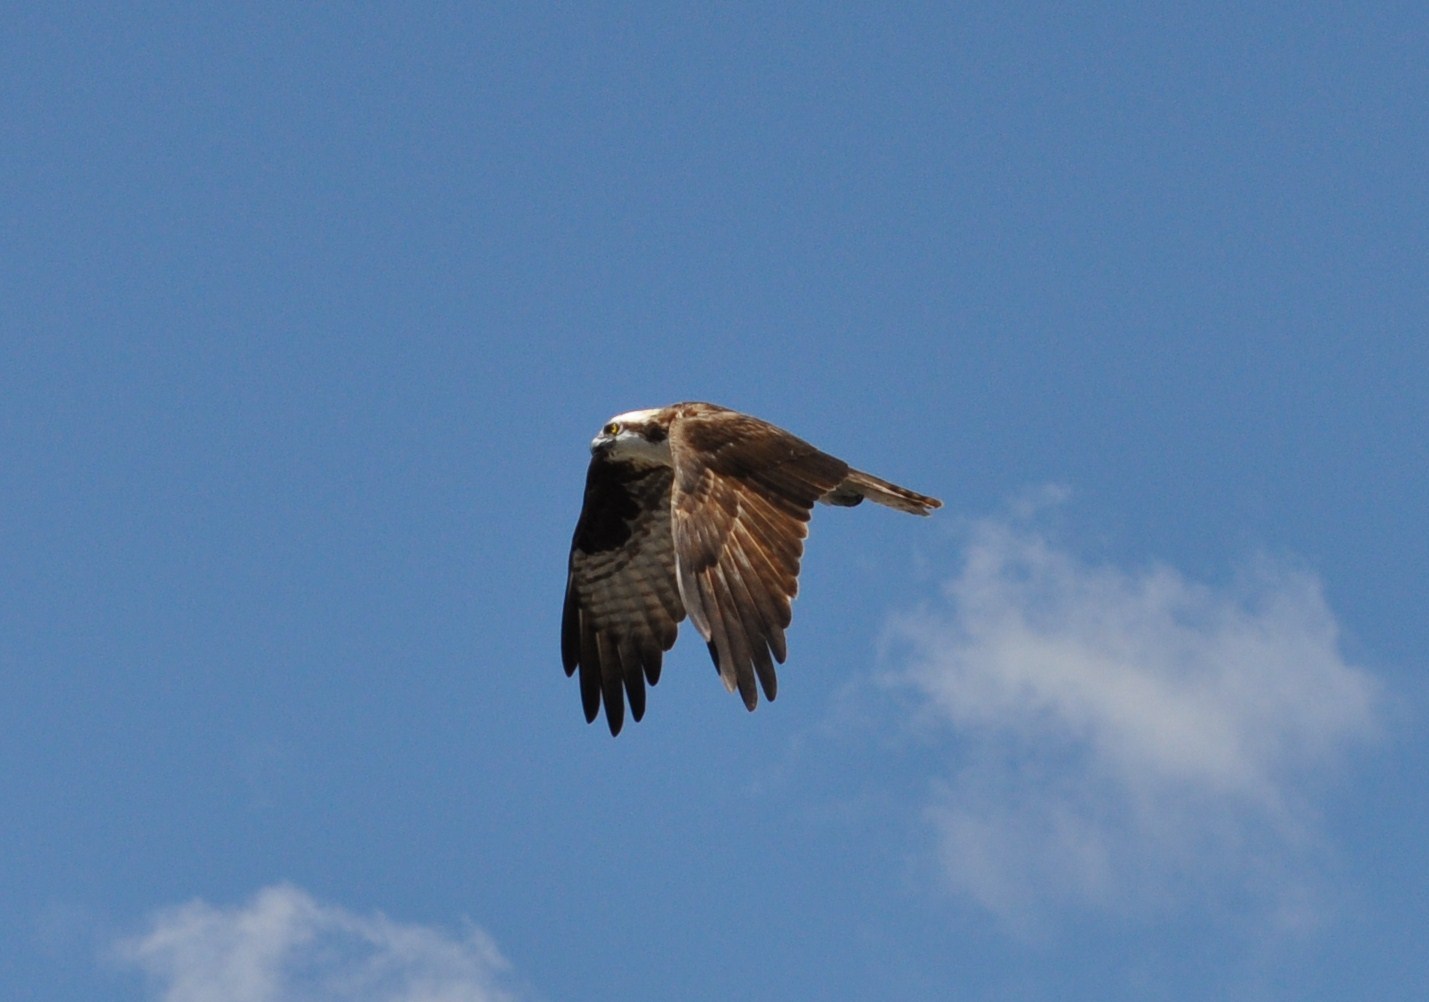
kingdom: Animalia
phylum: Chordata
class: Aves
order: Accipitriformes
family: Pandionidae
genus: Pandion
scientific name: Pandion haliaetus
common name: Osprey
